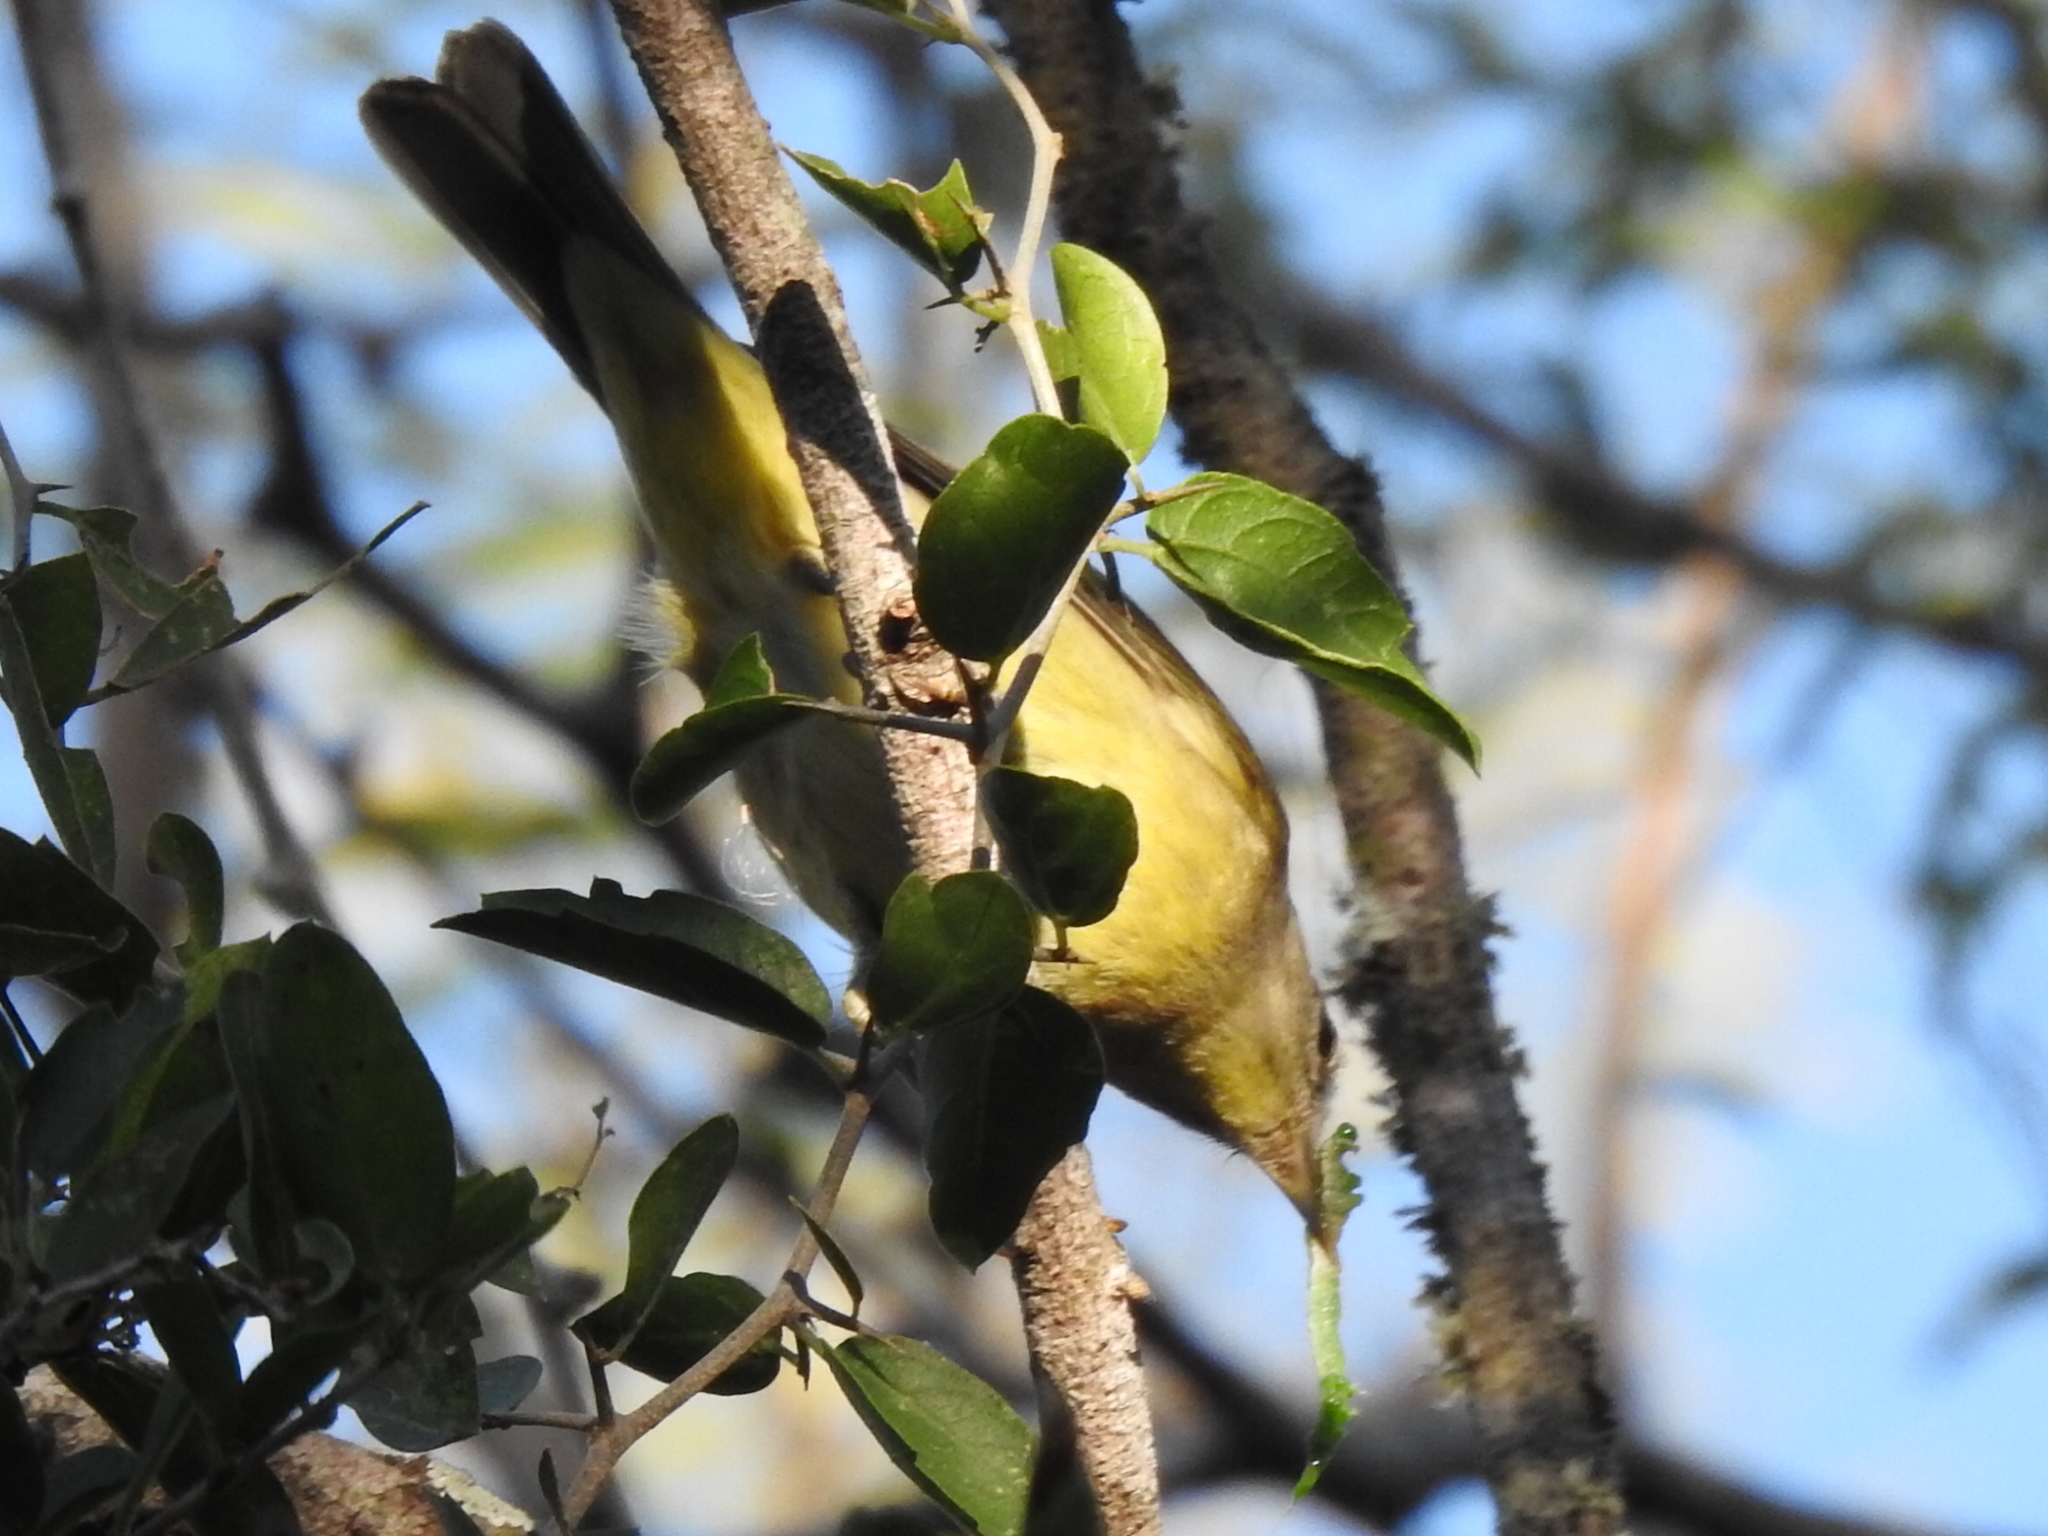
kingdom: Animalia
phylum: Chordata
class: Aves
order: Passeriformes
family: Parulidae
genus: Leiothlypis
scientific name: Leiothlypis celata
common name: Orange-crowned warbler
